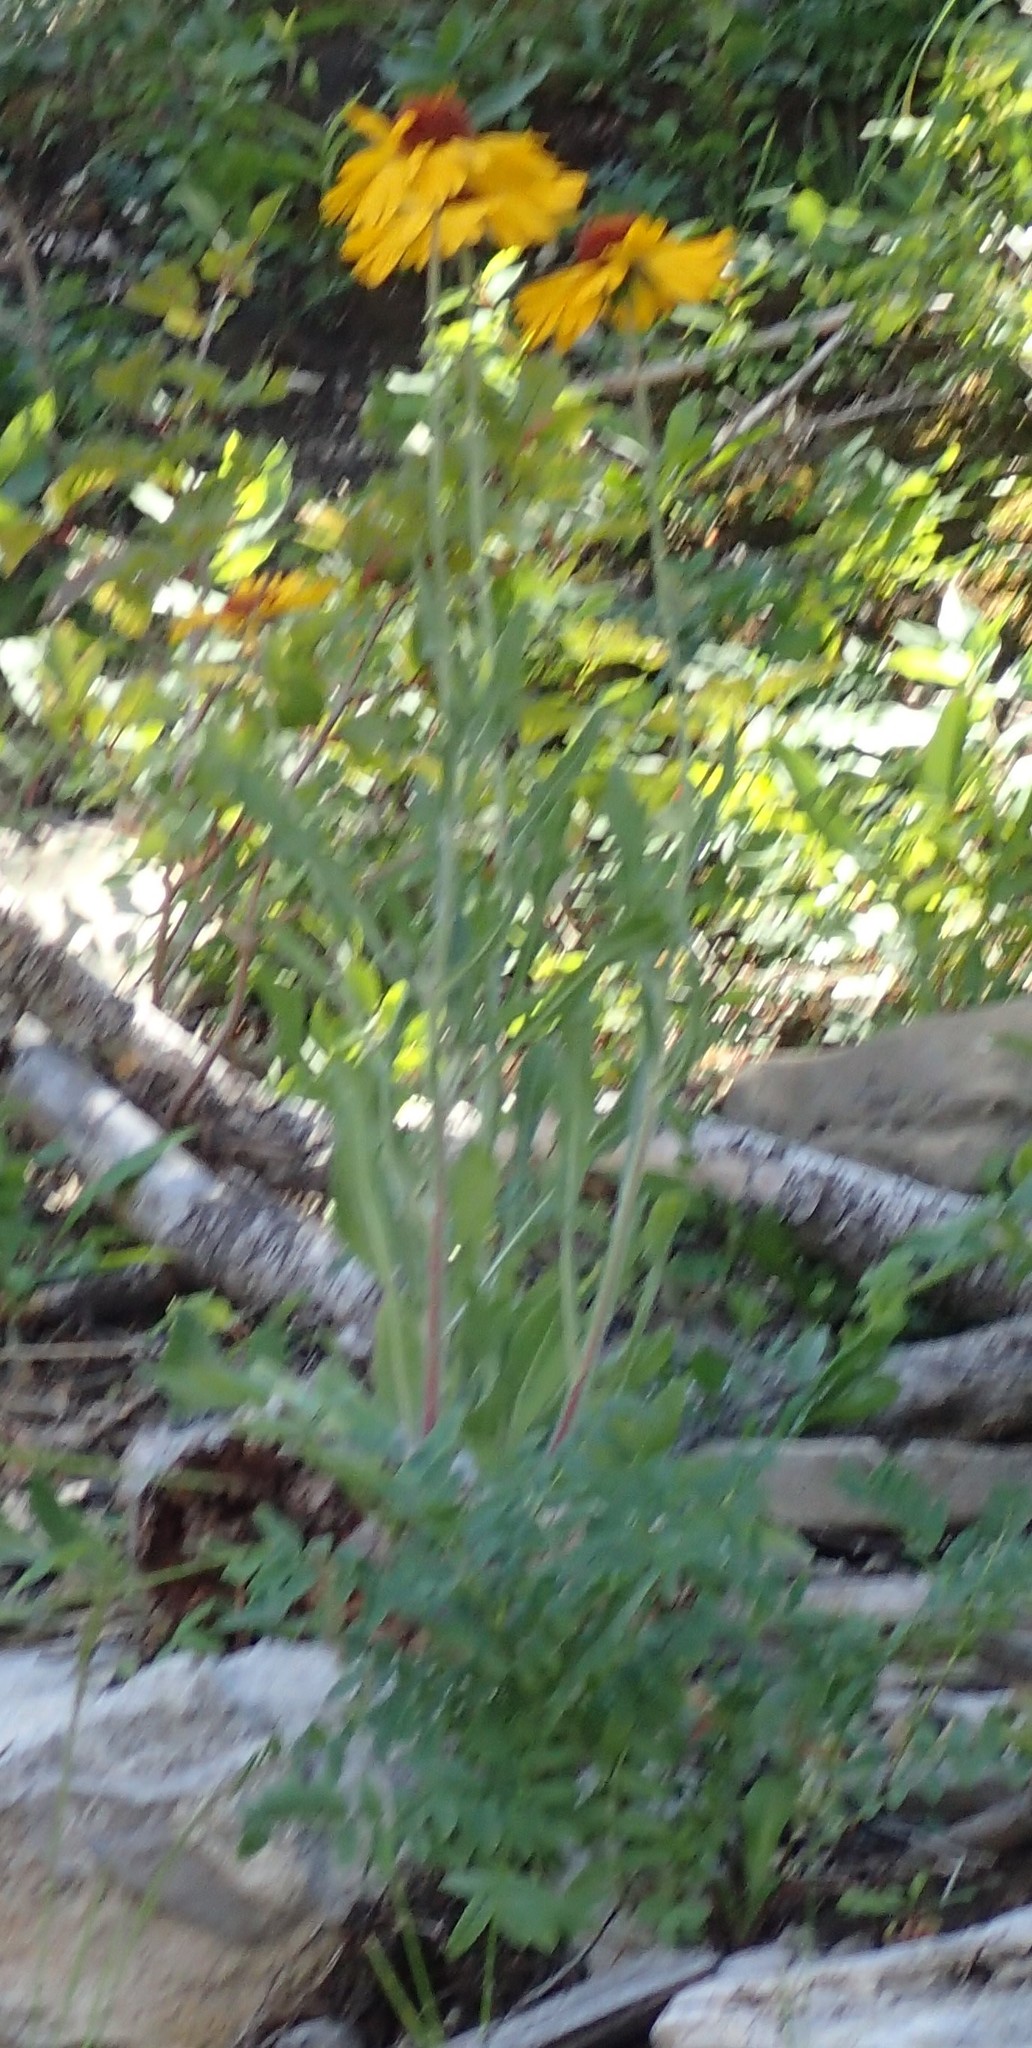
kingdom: Plantae
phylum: Tracheophyta
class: Magnoliopsida
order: Asterales
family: Asteraceae
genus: Gaillardia
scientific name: Gaillardia aristata
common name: Blanket-flower
